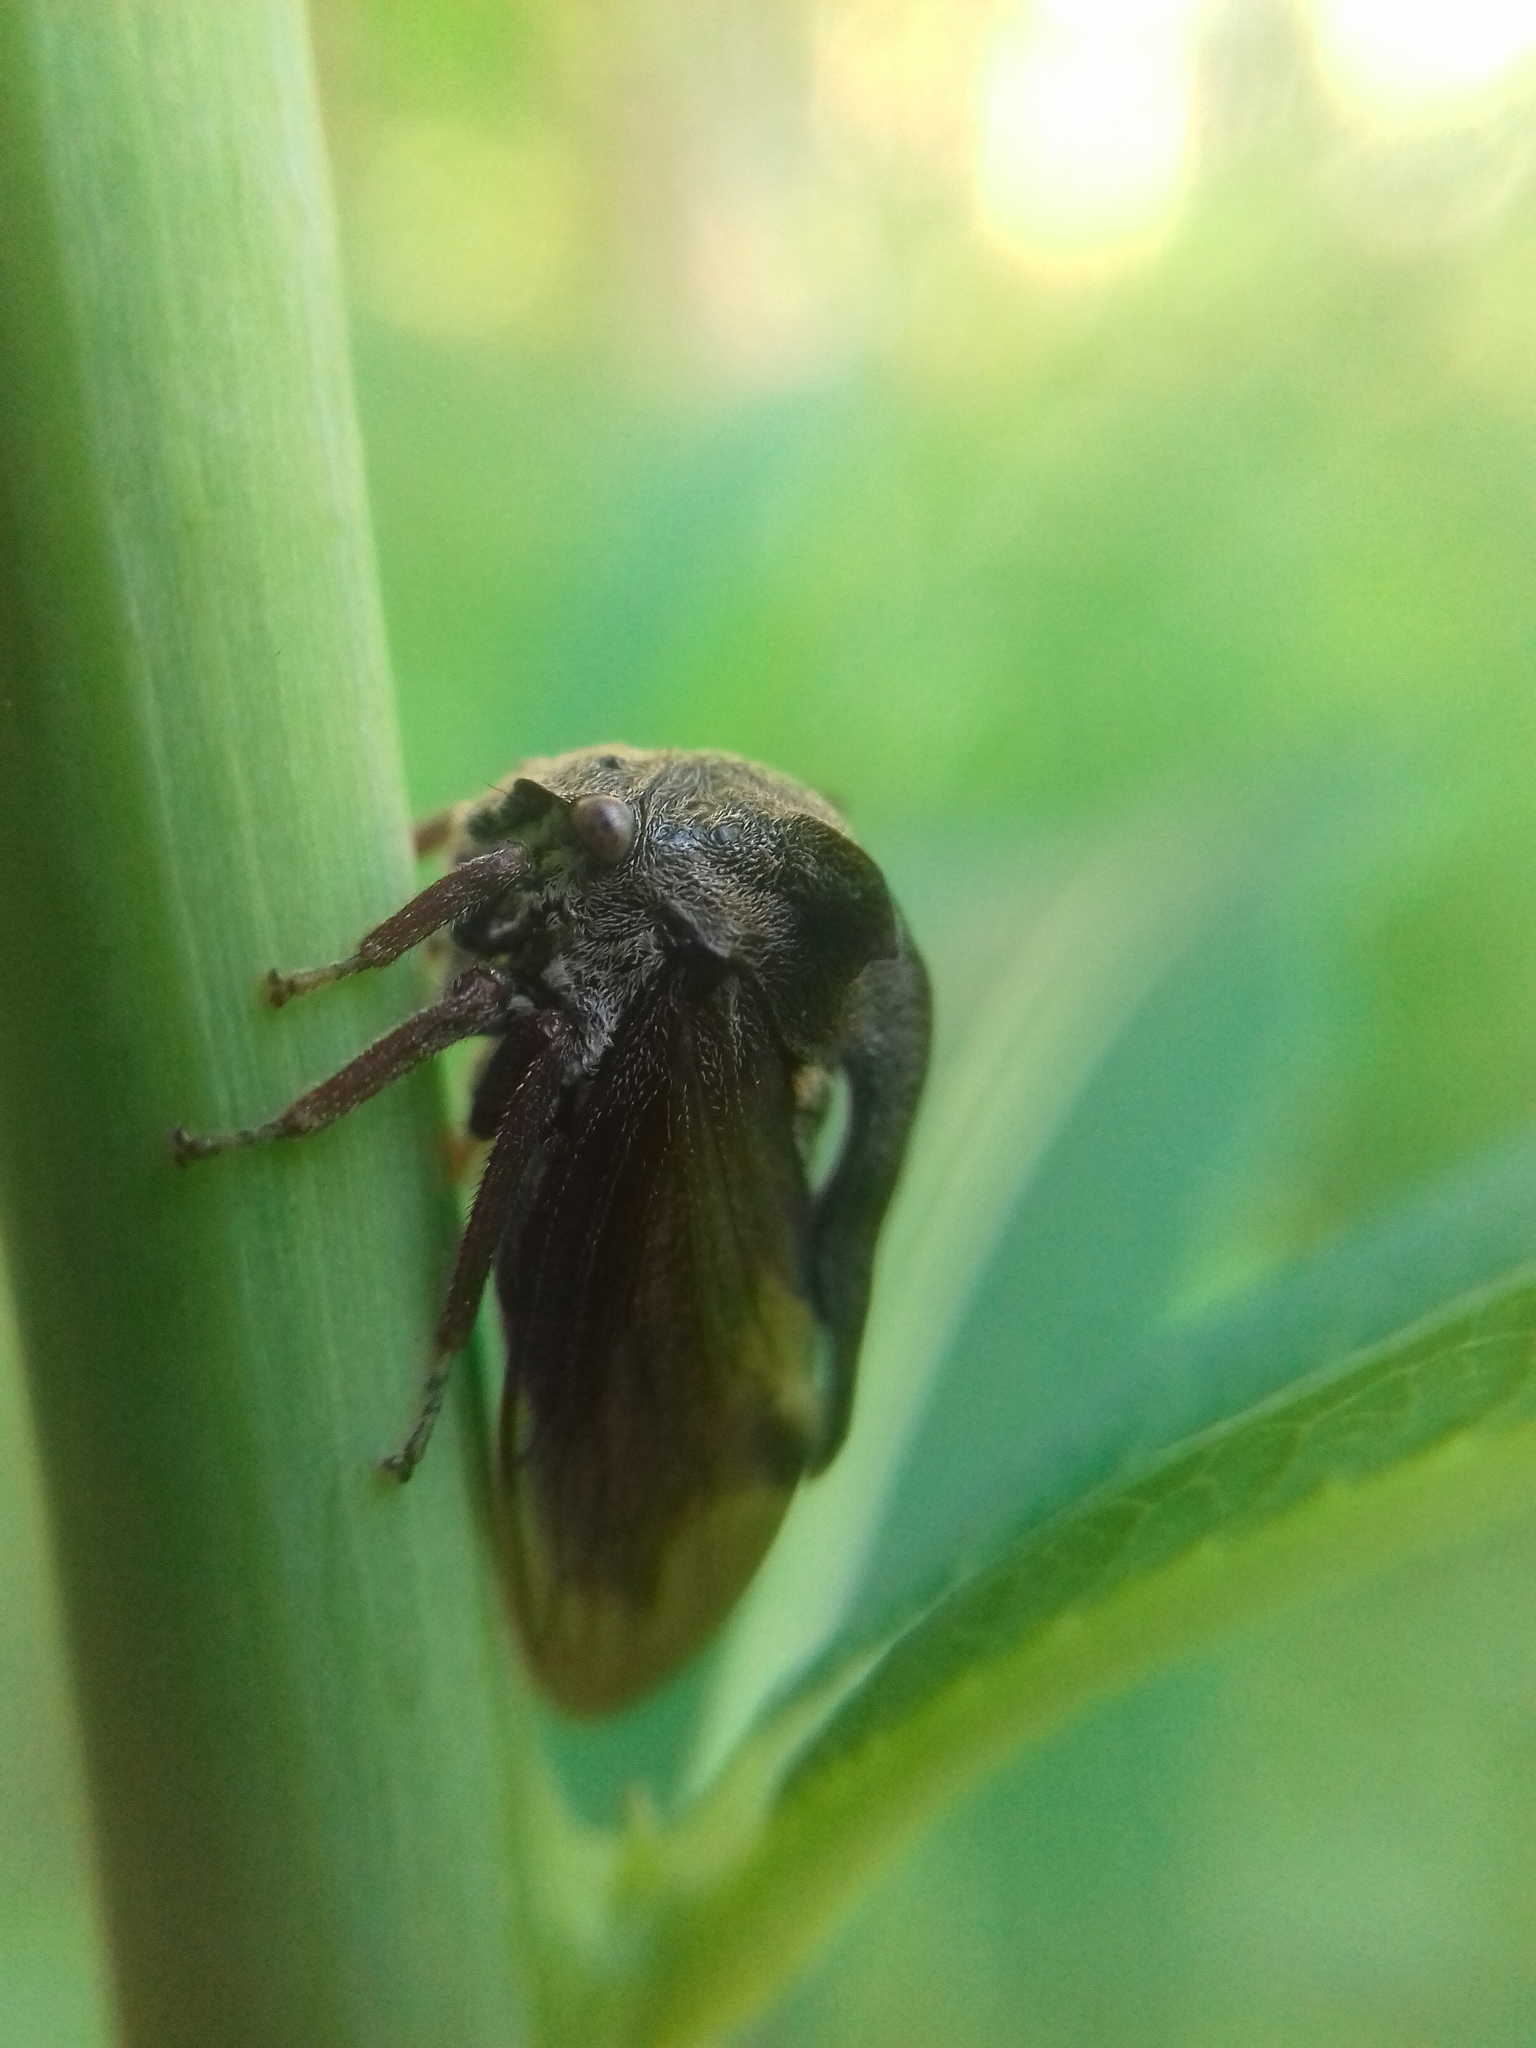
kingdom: Animalia
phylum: Arthropoda
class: Insecta
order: Hemiptera
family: Membracidae
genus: Centrotus
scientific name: Centrotus cornuta
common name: Treehopper
